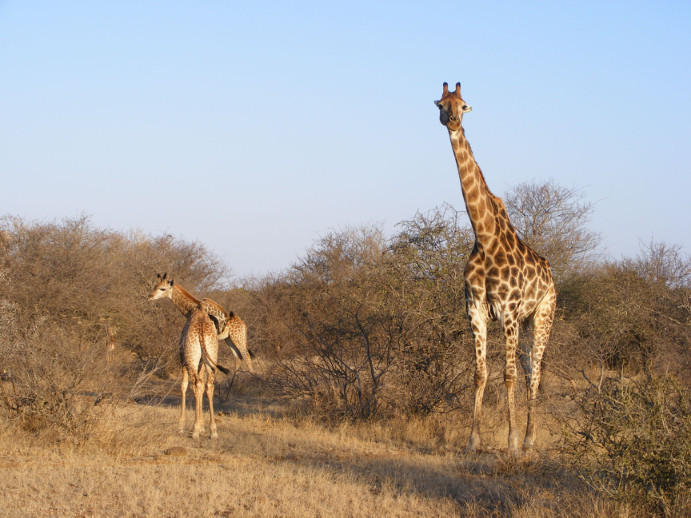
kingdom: Animalia
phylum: Chordata
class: Mammalia
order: Artiodactyla
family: Giraffidae
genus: Giraffa
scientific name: Giraffa giraffa
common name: Southern giraffe
